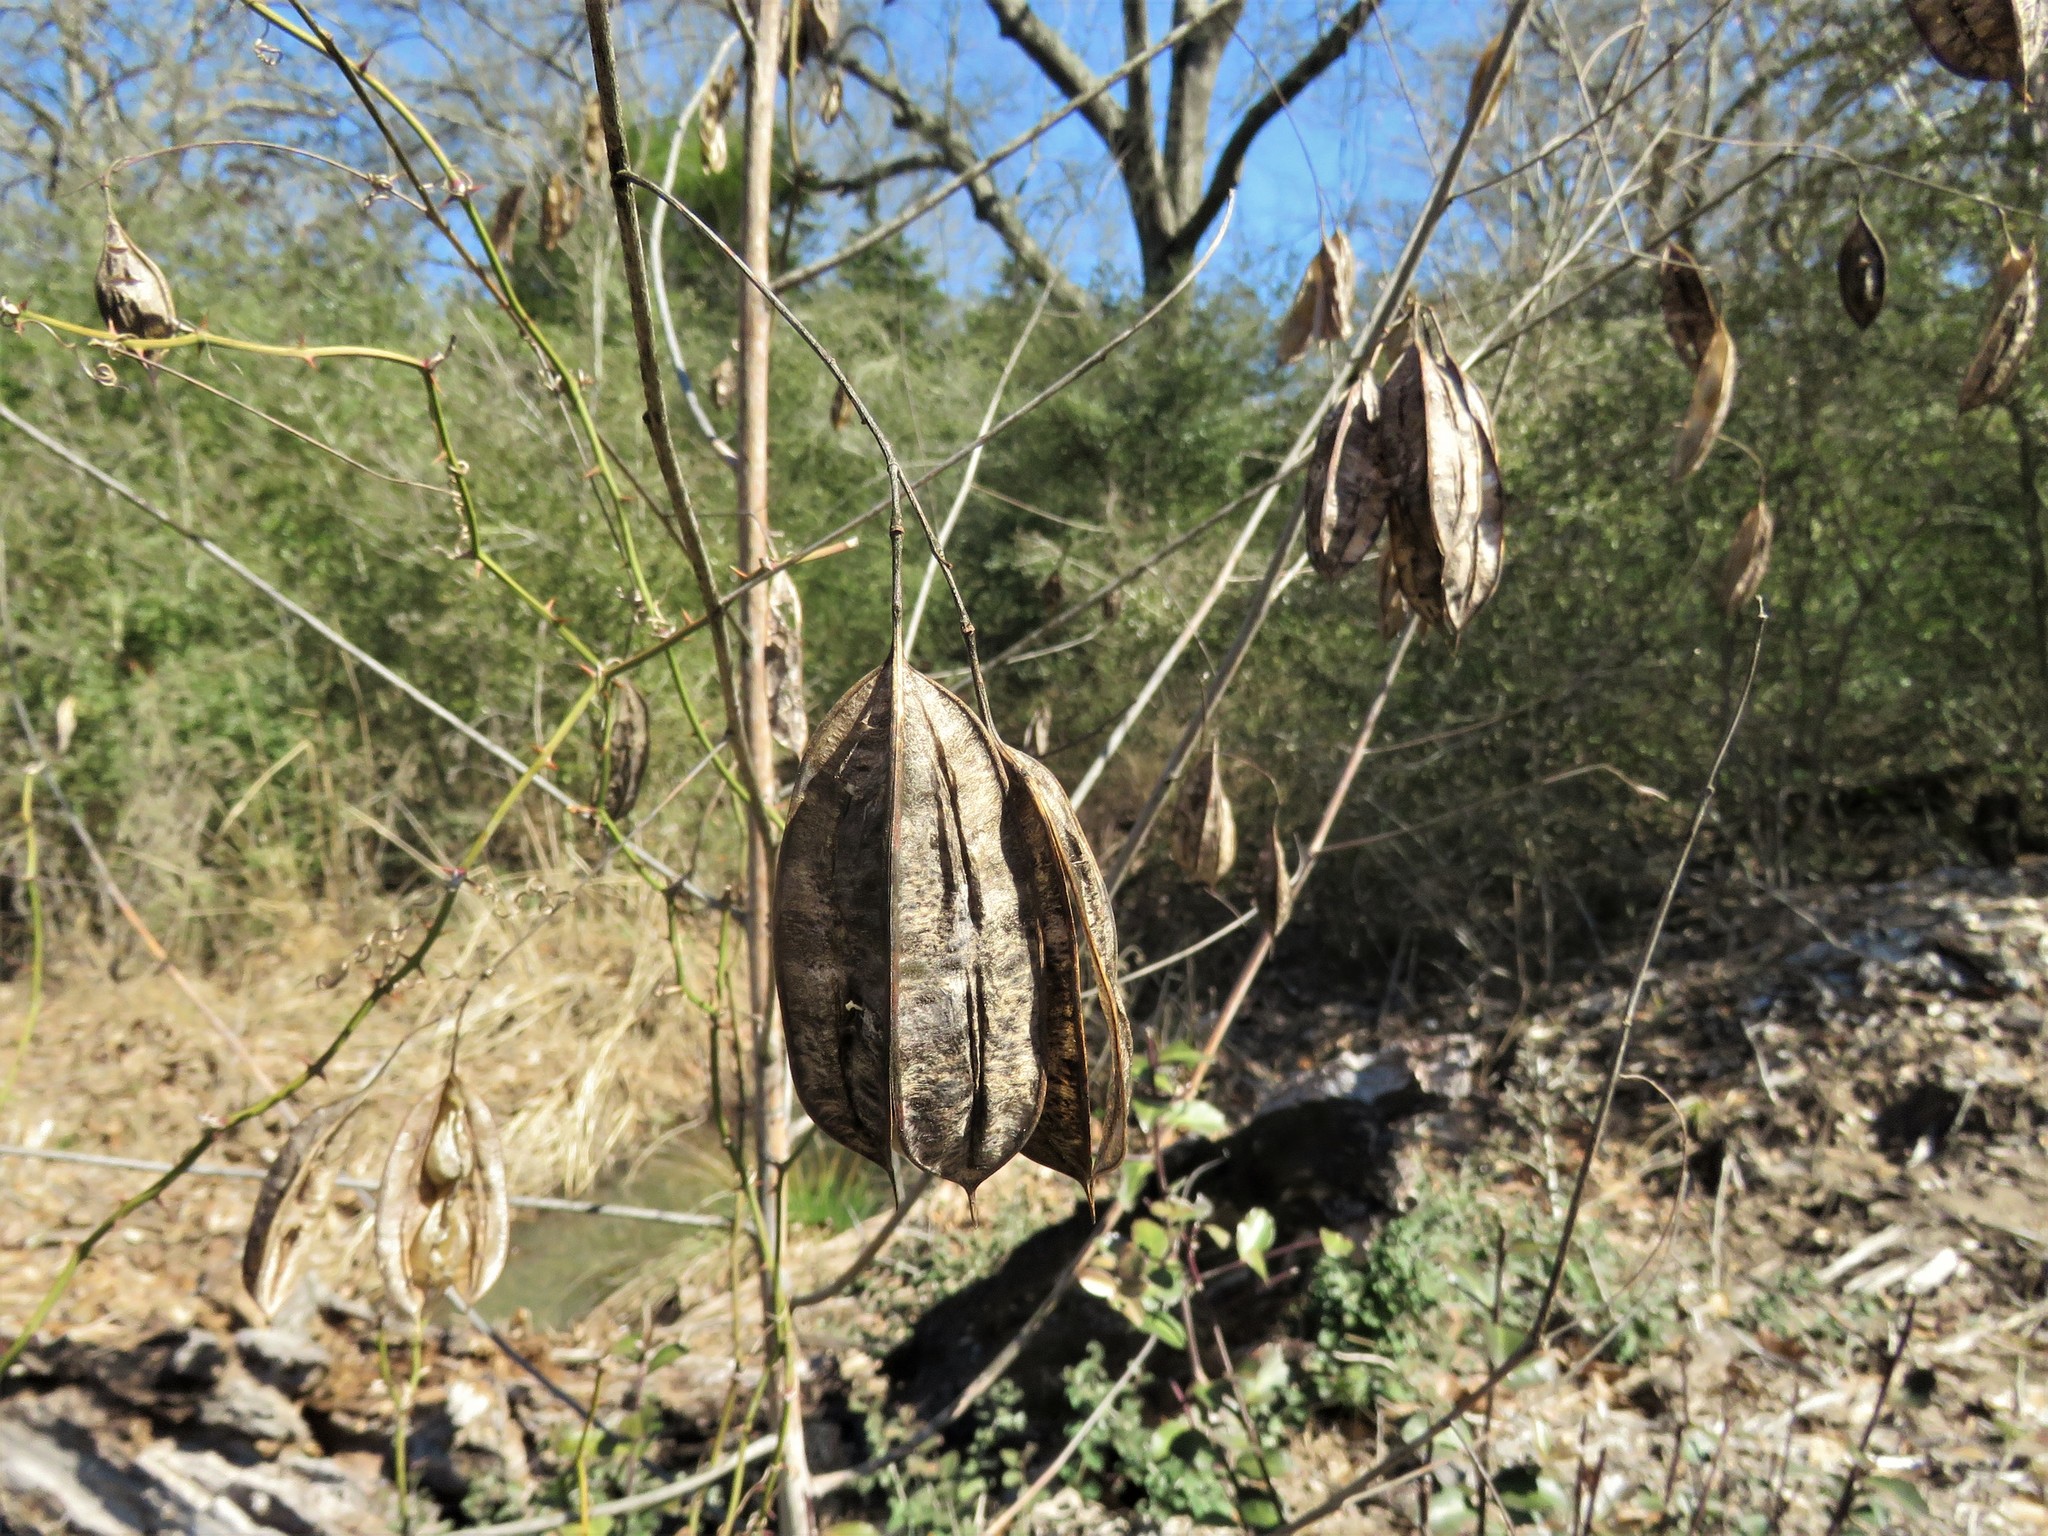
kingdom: Plantae
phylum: Tracheophyta
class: Magnoliopsida
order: Fabales
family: Fabaceae
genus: Sesbania
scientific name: Sesbania vesicaria
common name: Bagpod
